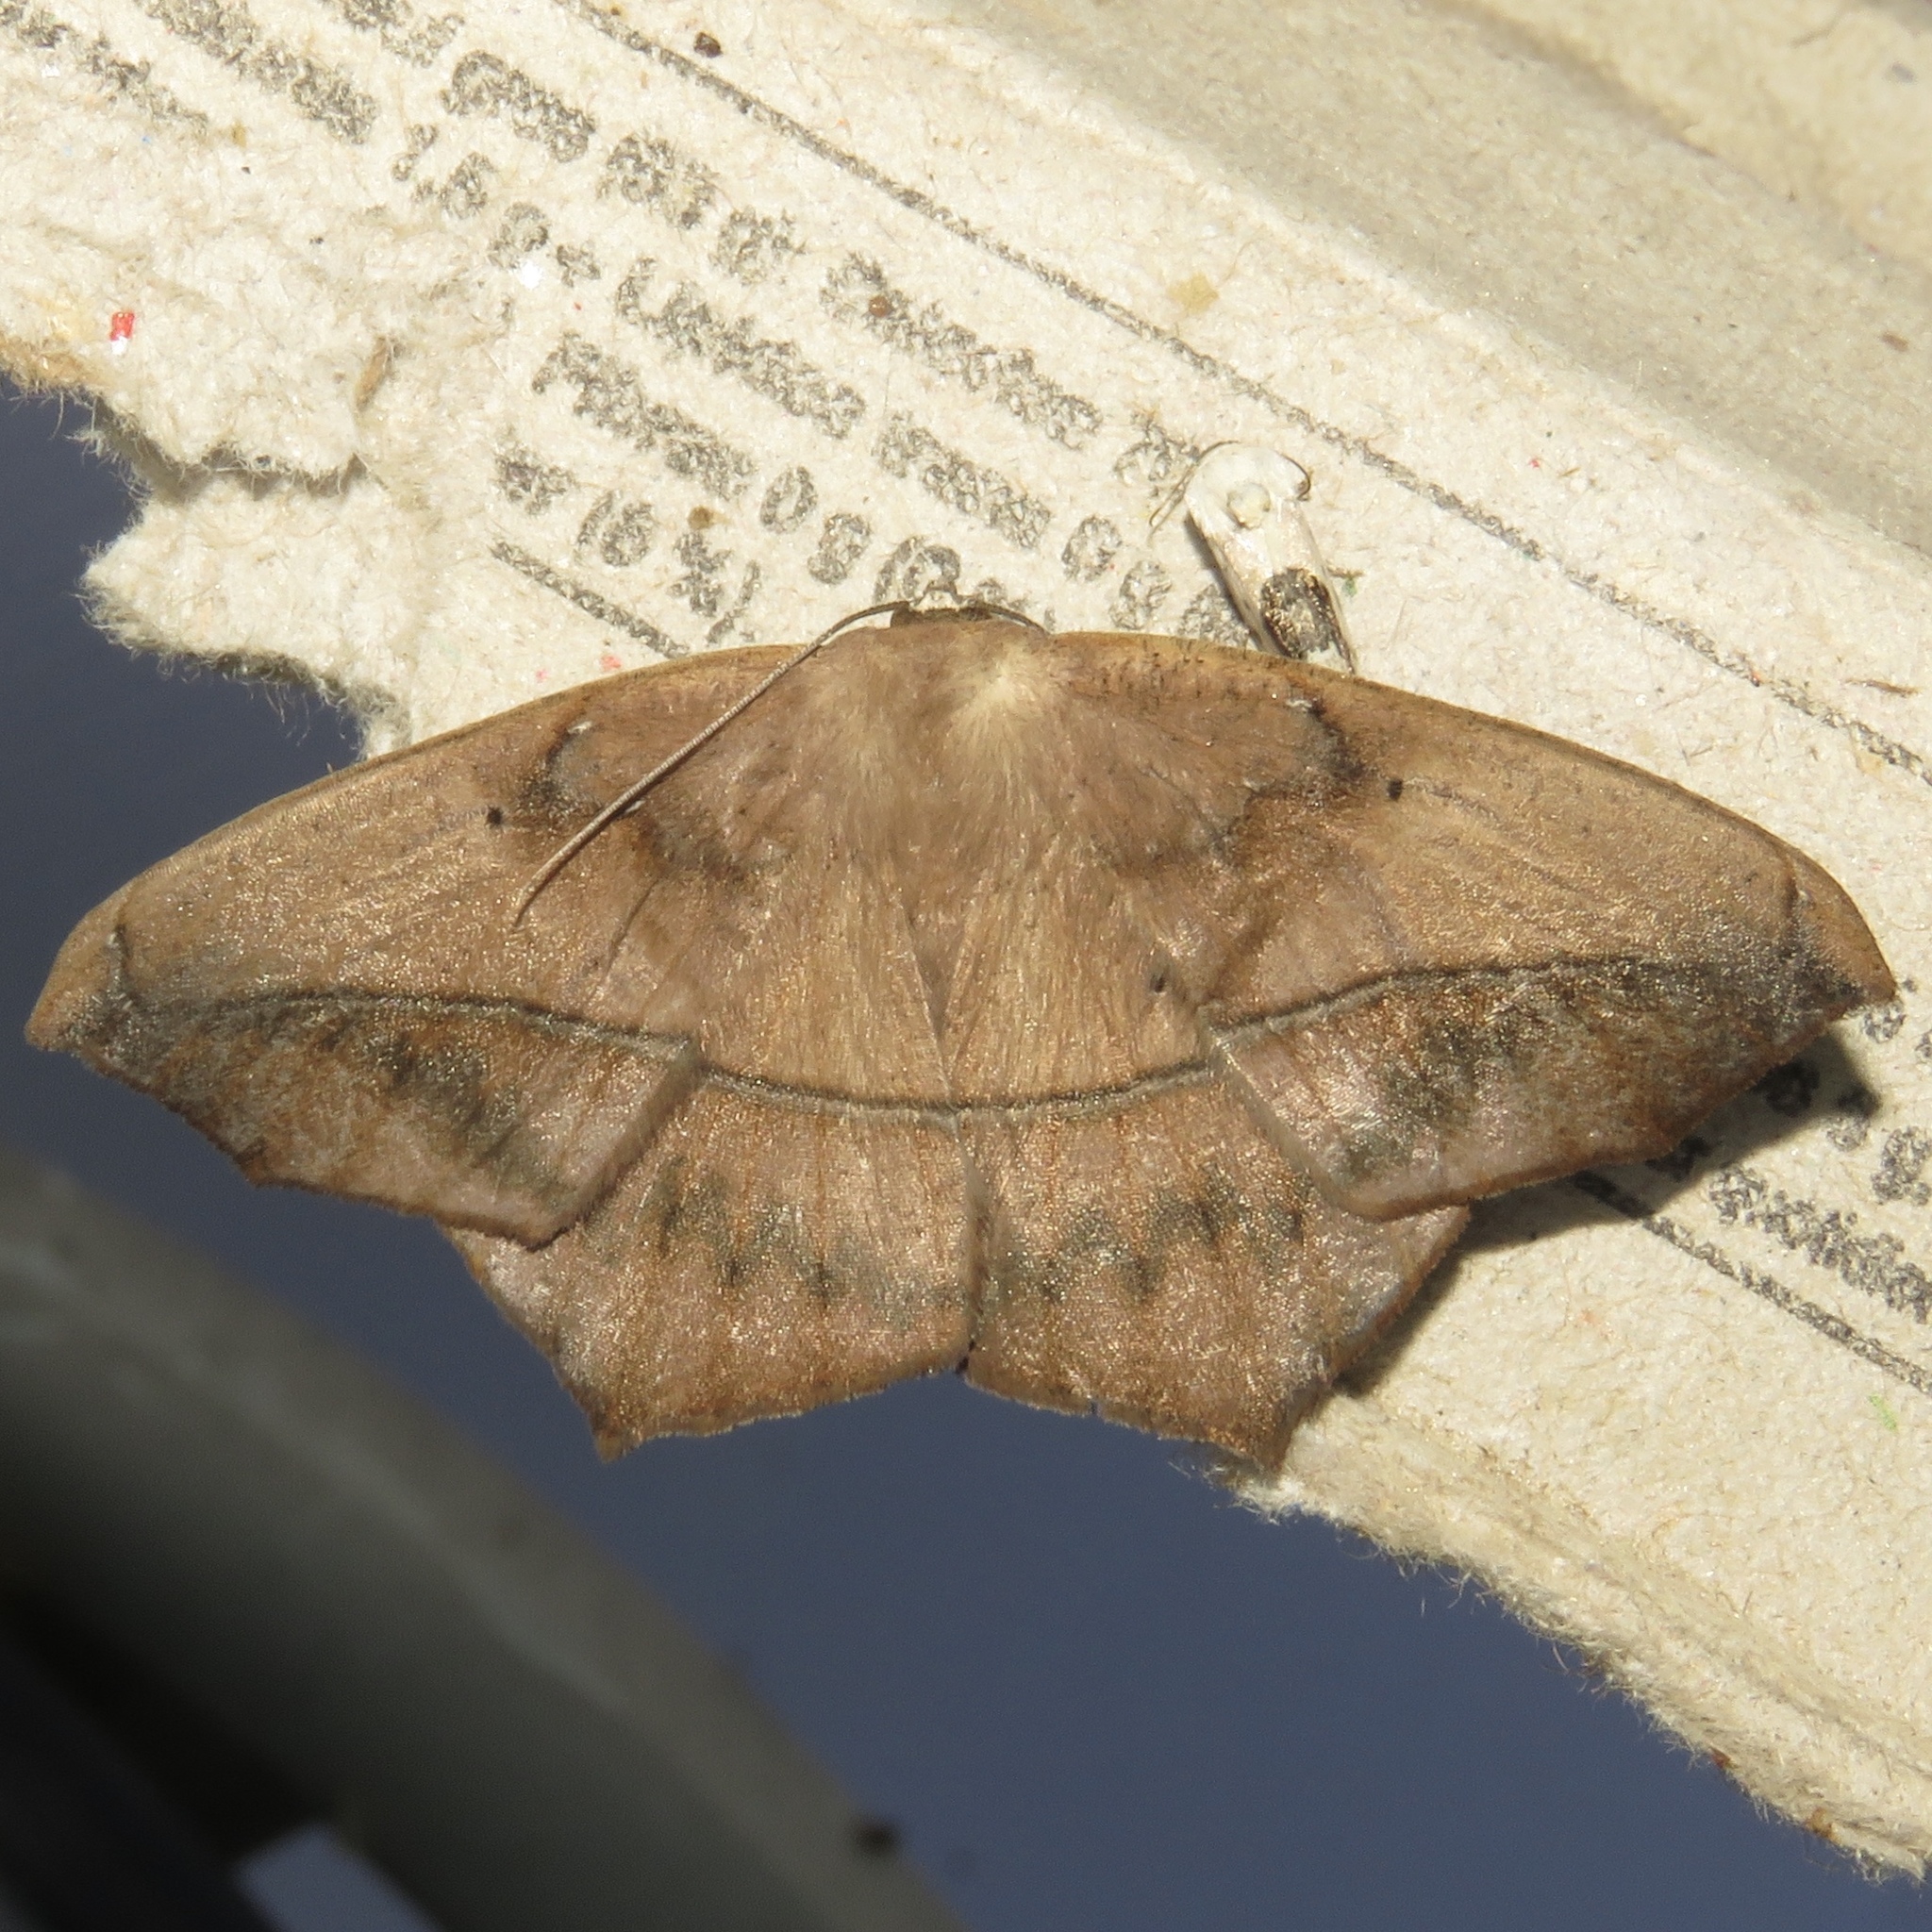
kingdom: Animalia
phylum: Arthropoda
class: Insecta
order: Lepidoptera
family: Geometridae
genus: Prochoerodes
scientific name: Prochoerodes lineola
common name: Large maple spanworm
